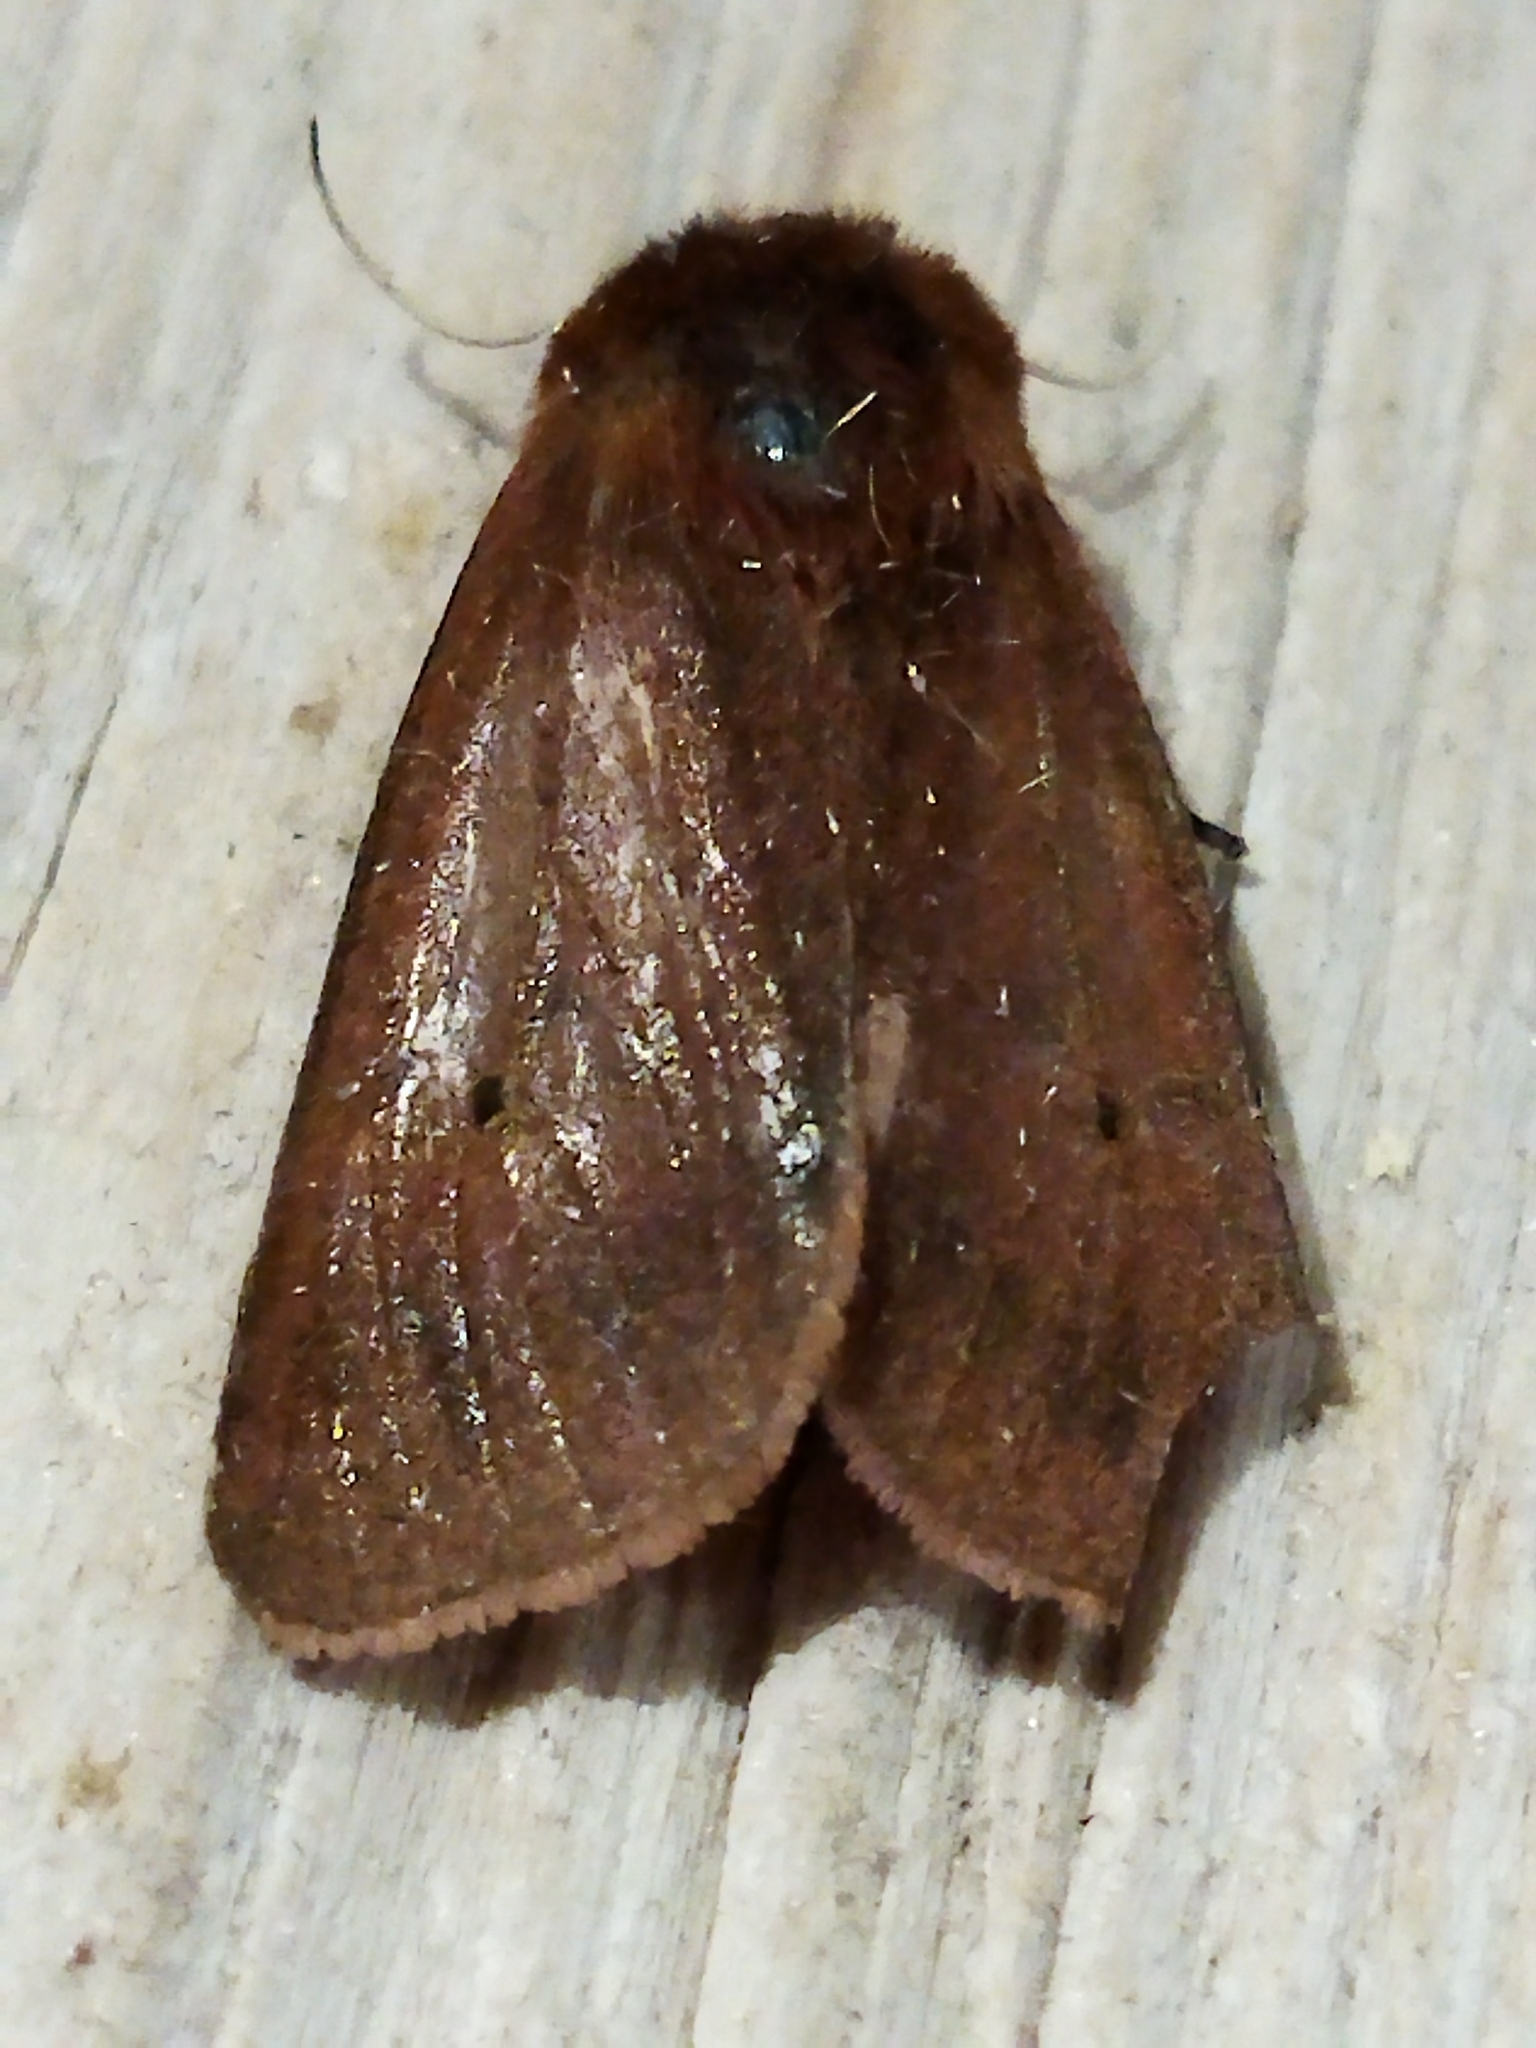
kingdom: Animalia
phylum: Arthropoda
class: Insecta
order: Lepidoptera
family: Erebidae
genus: Phragmatobia
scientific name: Phragmatobia fuliginosa
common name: Ruby tiger
